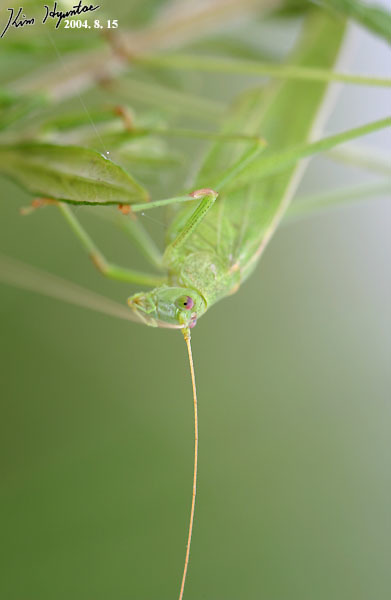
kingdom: Animalia
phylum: Arthropoda
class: Insecta
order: Orthoptera
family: Tettigoniidae
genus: Phaneroptera
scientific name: Phaneroptera falcata
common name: Sickle-bearing bush-cricket
